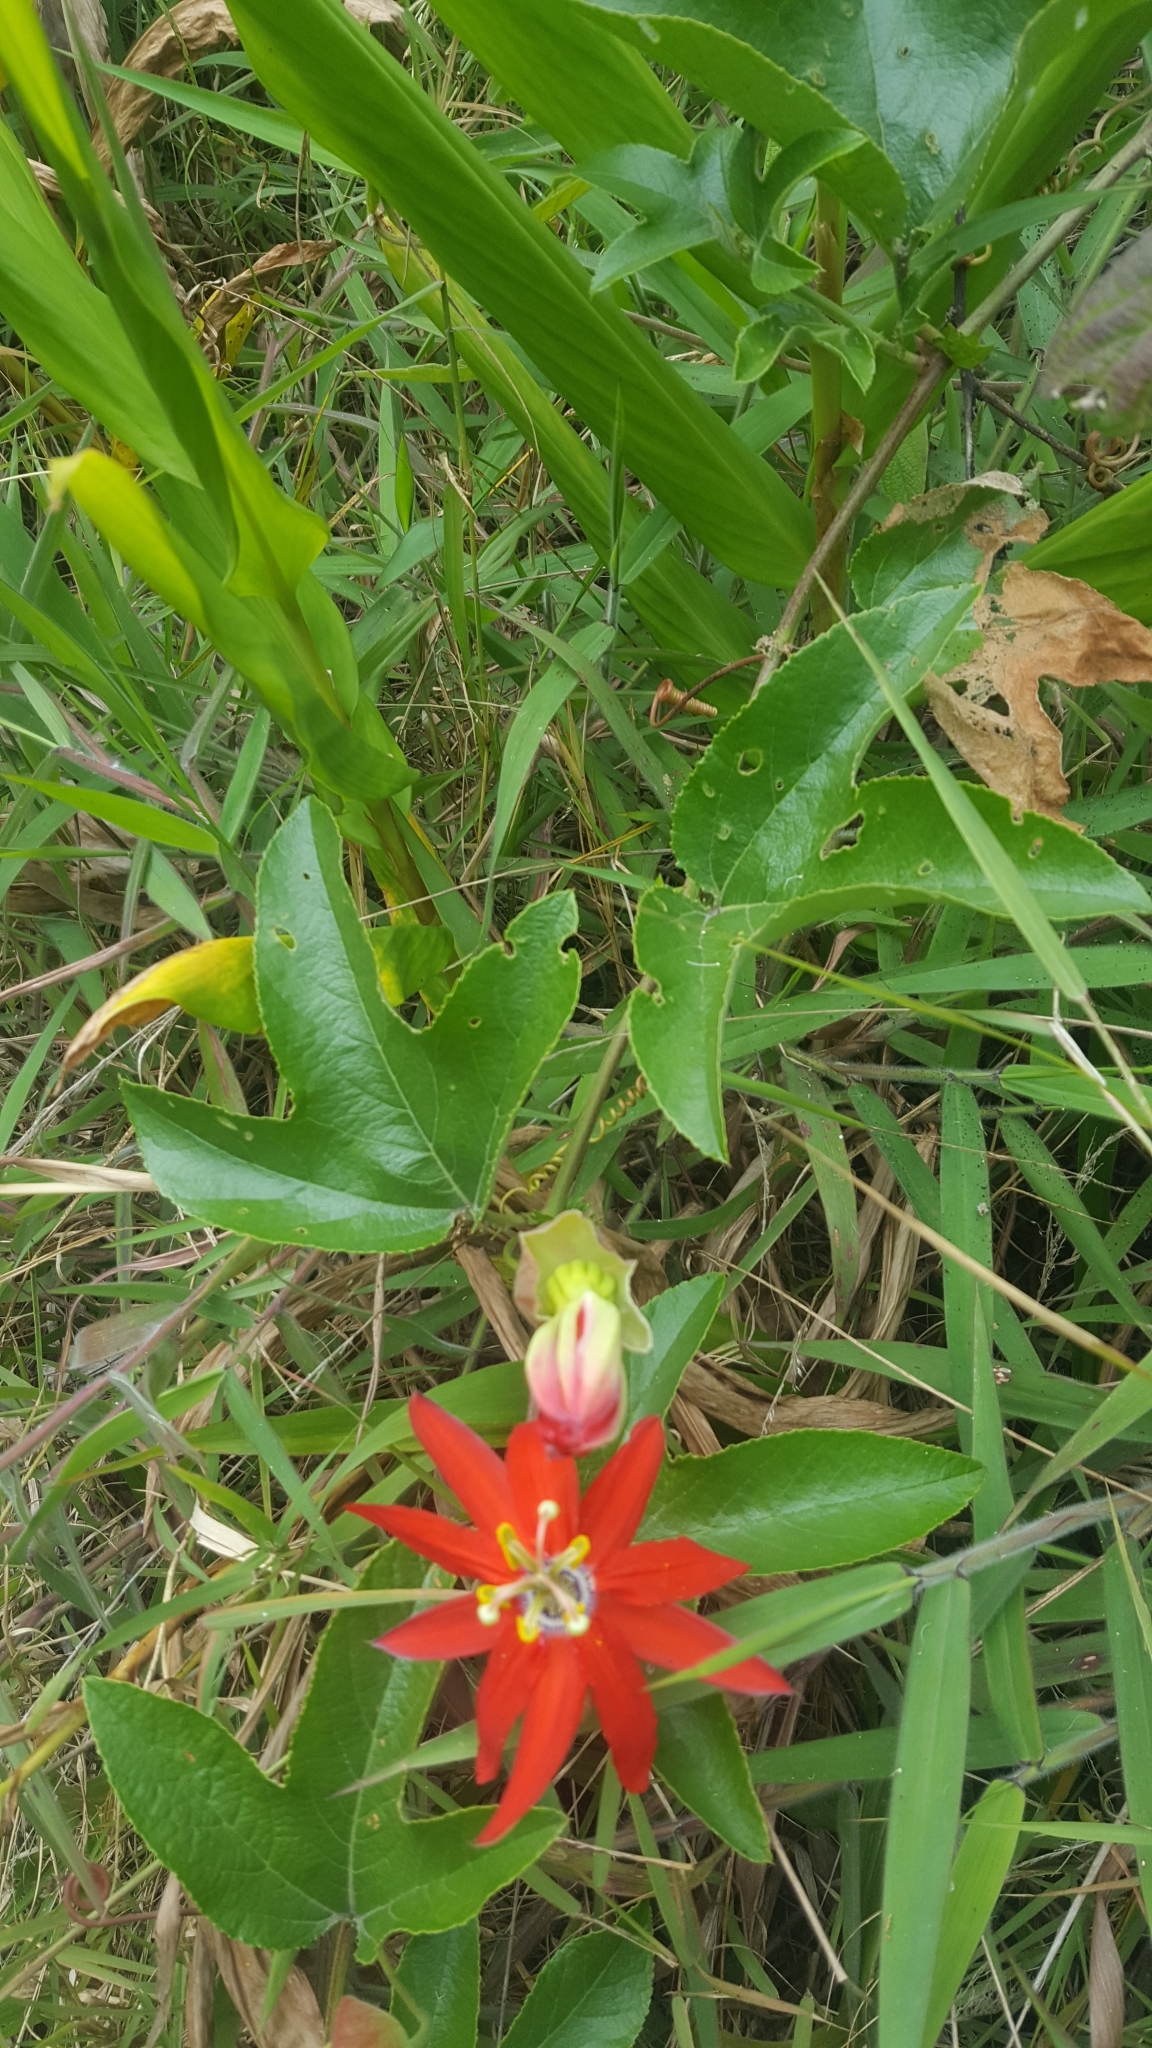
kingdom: Plantae
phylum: Tracheophyta
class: Magnoliopsida
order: Malpighiales
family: Passifloraceae
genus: Passiflora
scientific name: Passiflora manicata
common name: Red passionflower
